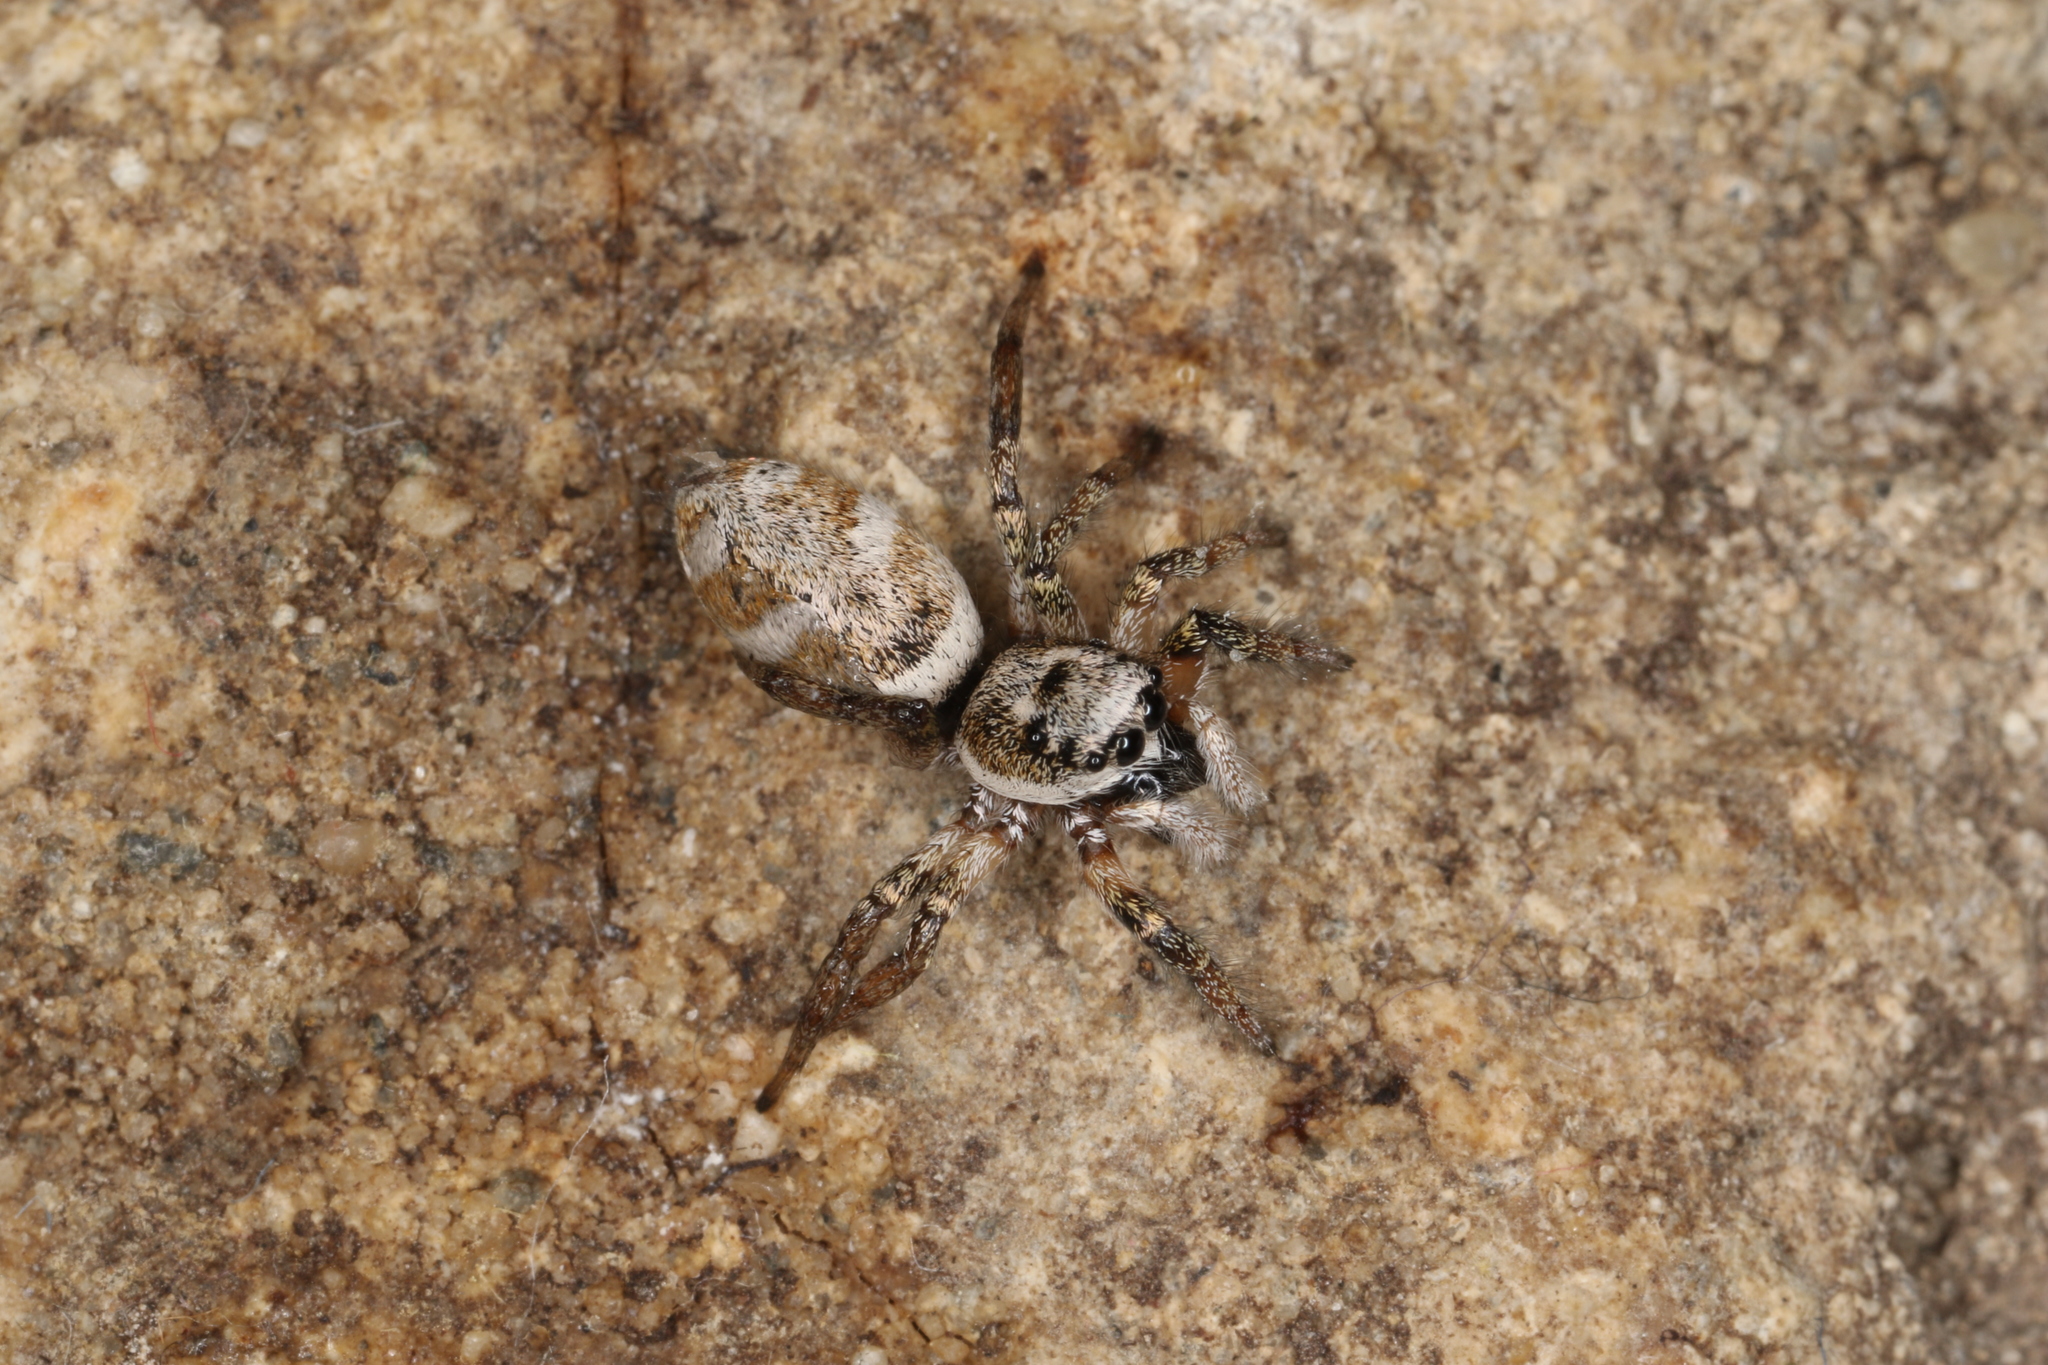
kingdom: Animalia
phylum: Arthropoda
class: Arachnida
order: Araneae
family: Salticidae
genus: Salticus
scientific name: Salticus scenicus
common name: Zebra jumper
